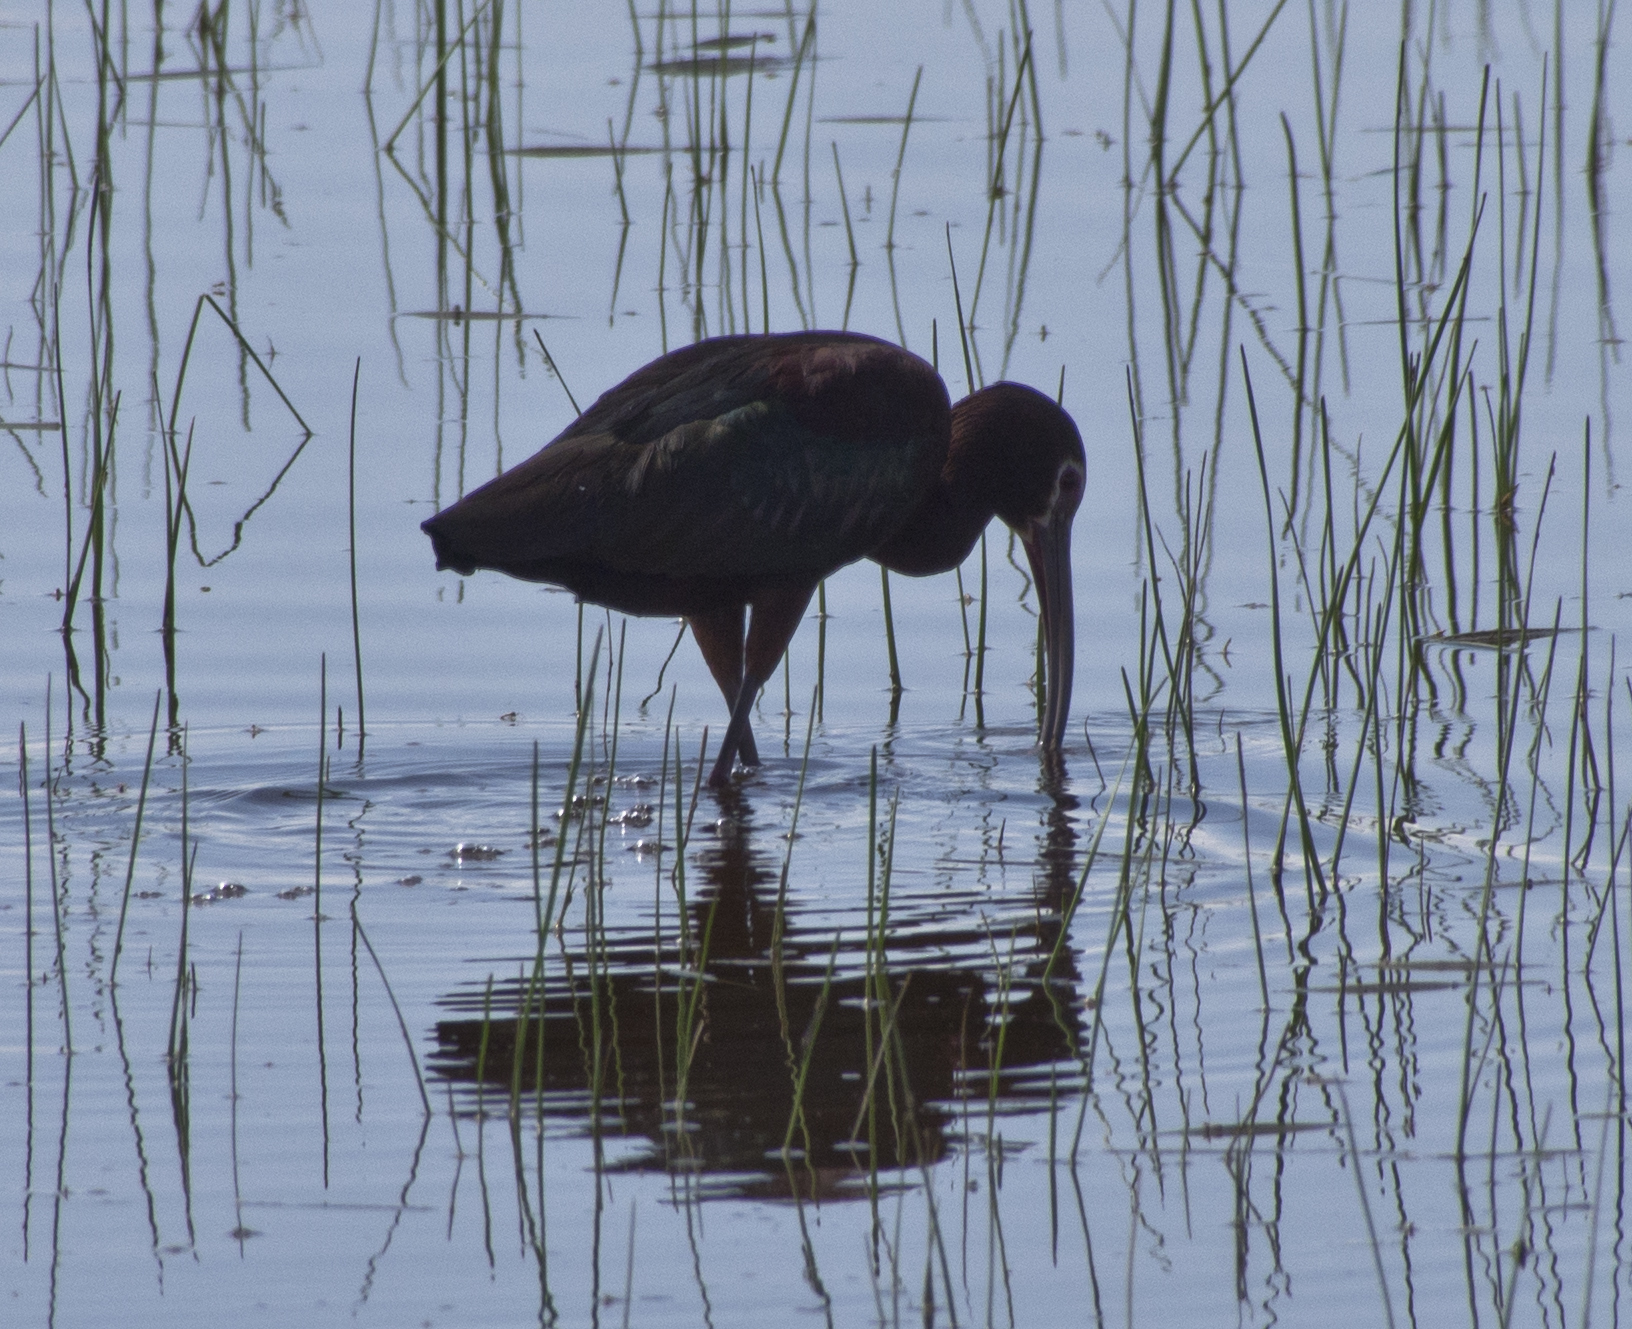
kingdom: Animalia
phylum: Chordata
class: Aves
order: Pelecaniformes
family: Threskiornithidae
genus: Plegadis
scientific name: Plegadis chihi
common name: White-faced ibis
